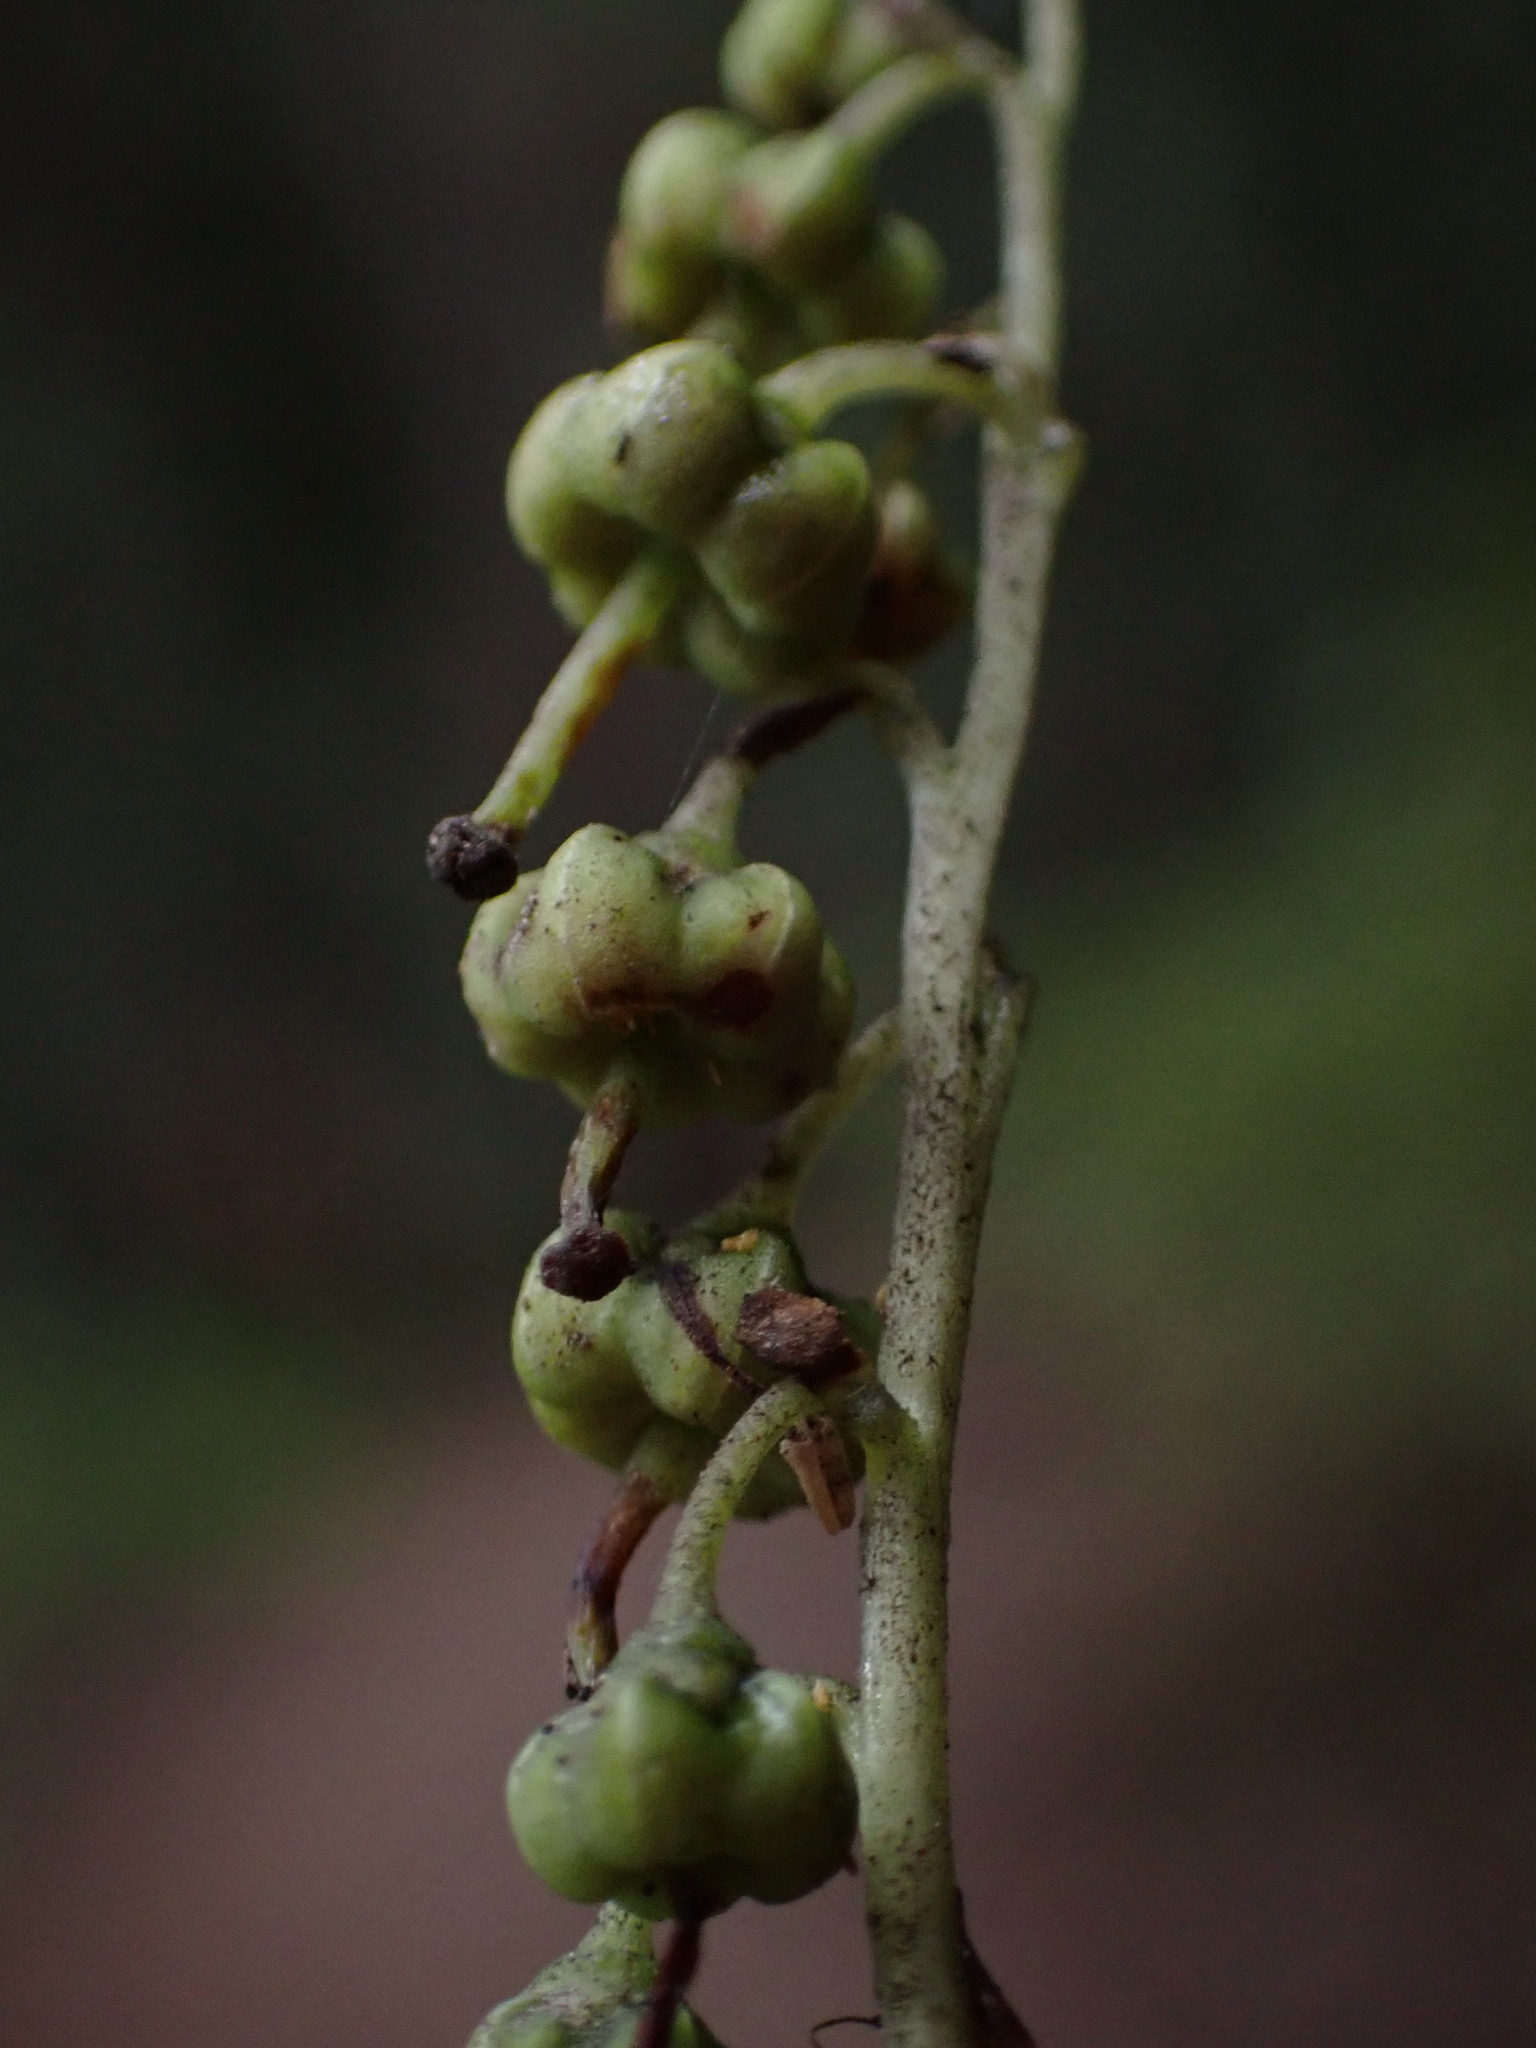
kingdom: Plantae
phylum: Tracheophyta
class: Magnoliopsida
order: Ericales
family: Ericaceae
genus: Orthilia
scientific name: Orthilia secunda
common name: One-sided orthilia
